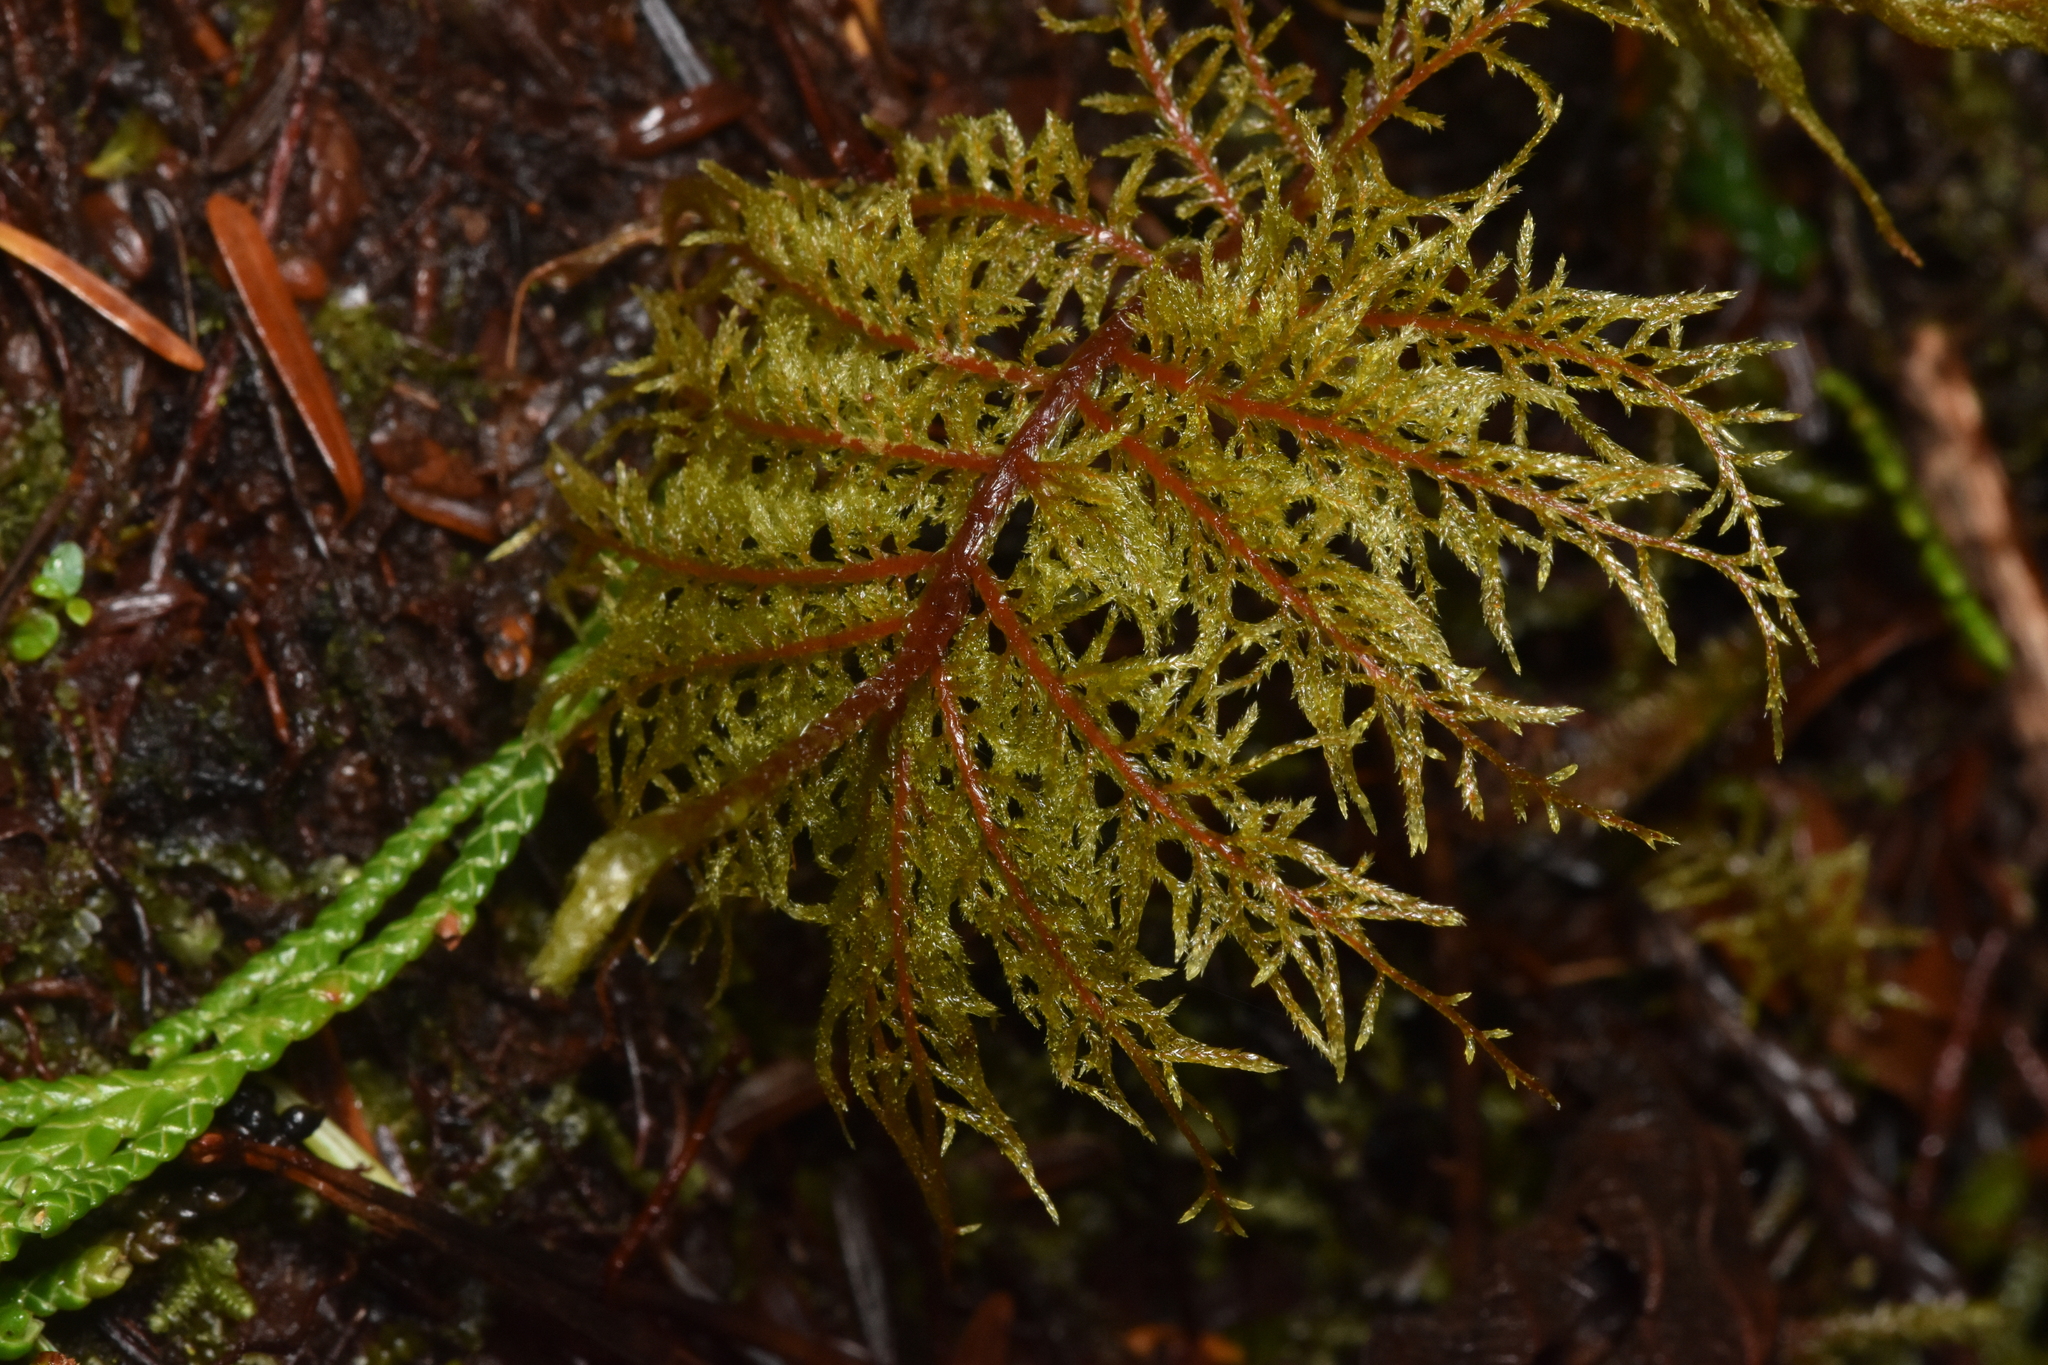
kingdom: Plantae
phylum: Bryophyta
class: Bryopsida
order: Hypnales
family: Hylocomiaceae
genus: Hylocomium
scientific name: Hylocomium splendens
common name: Stairstep moss
